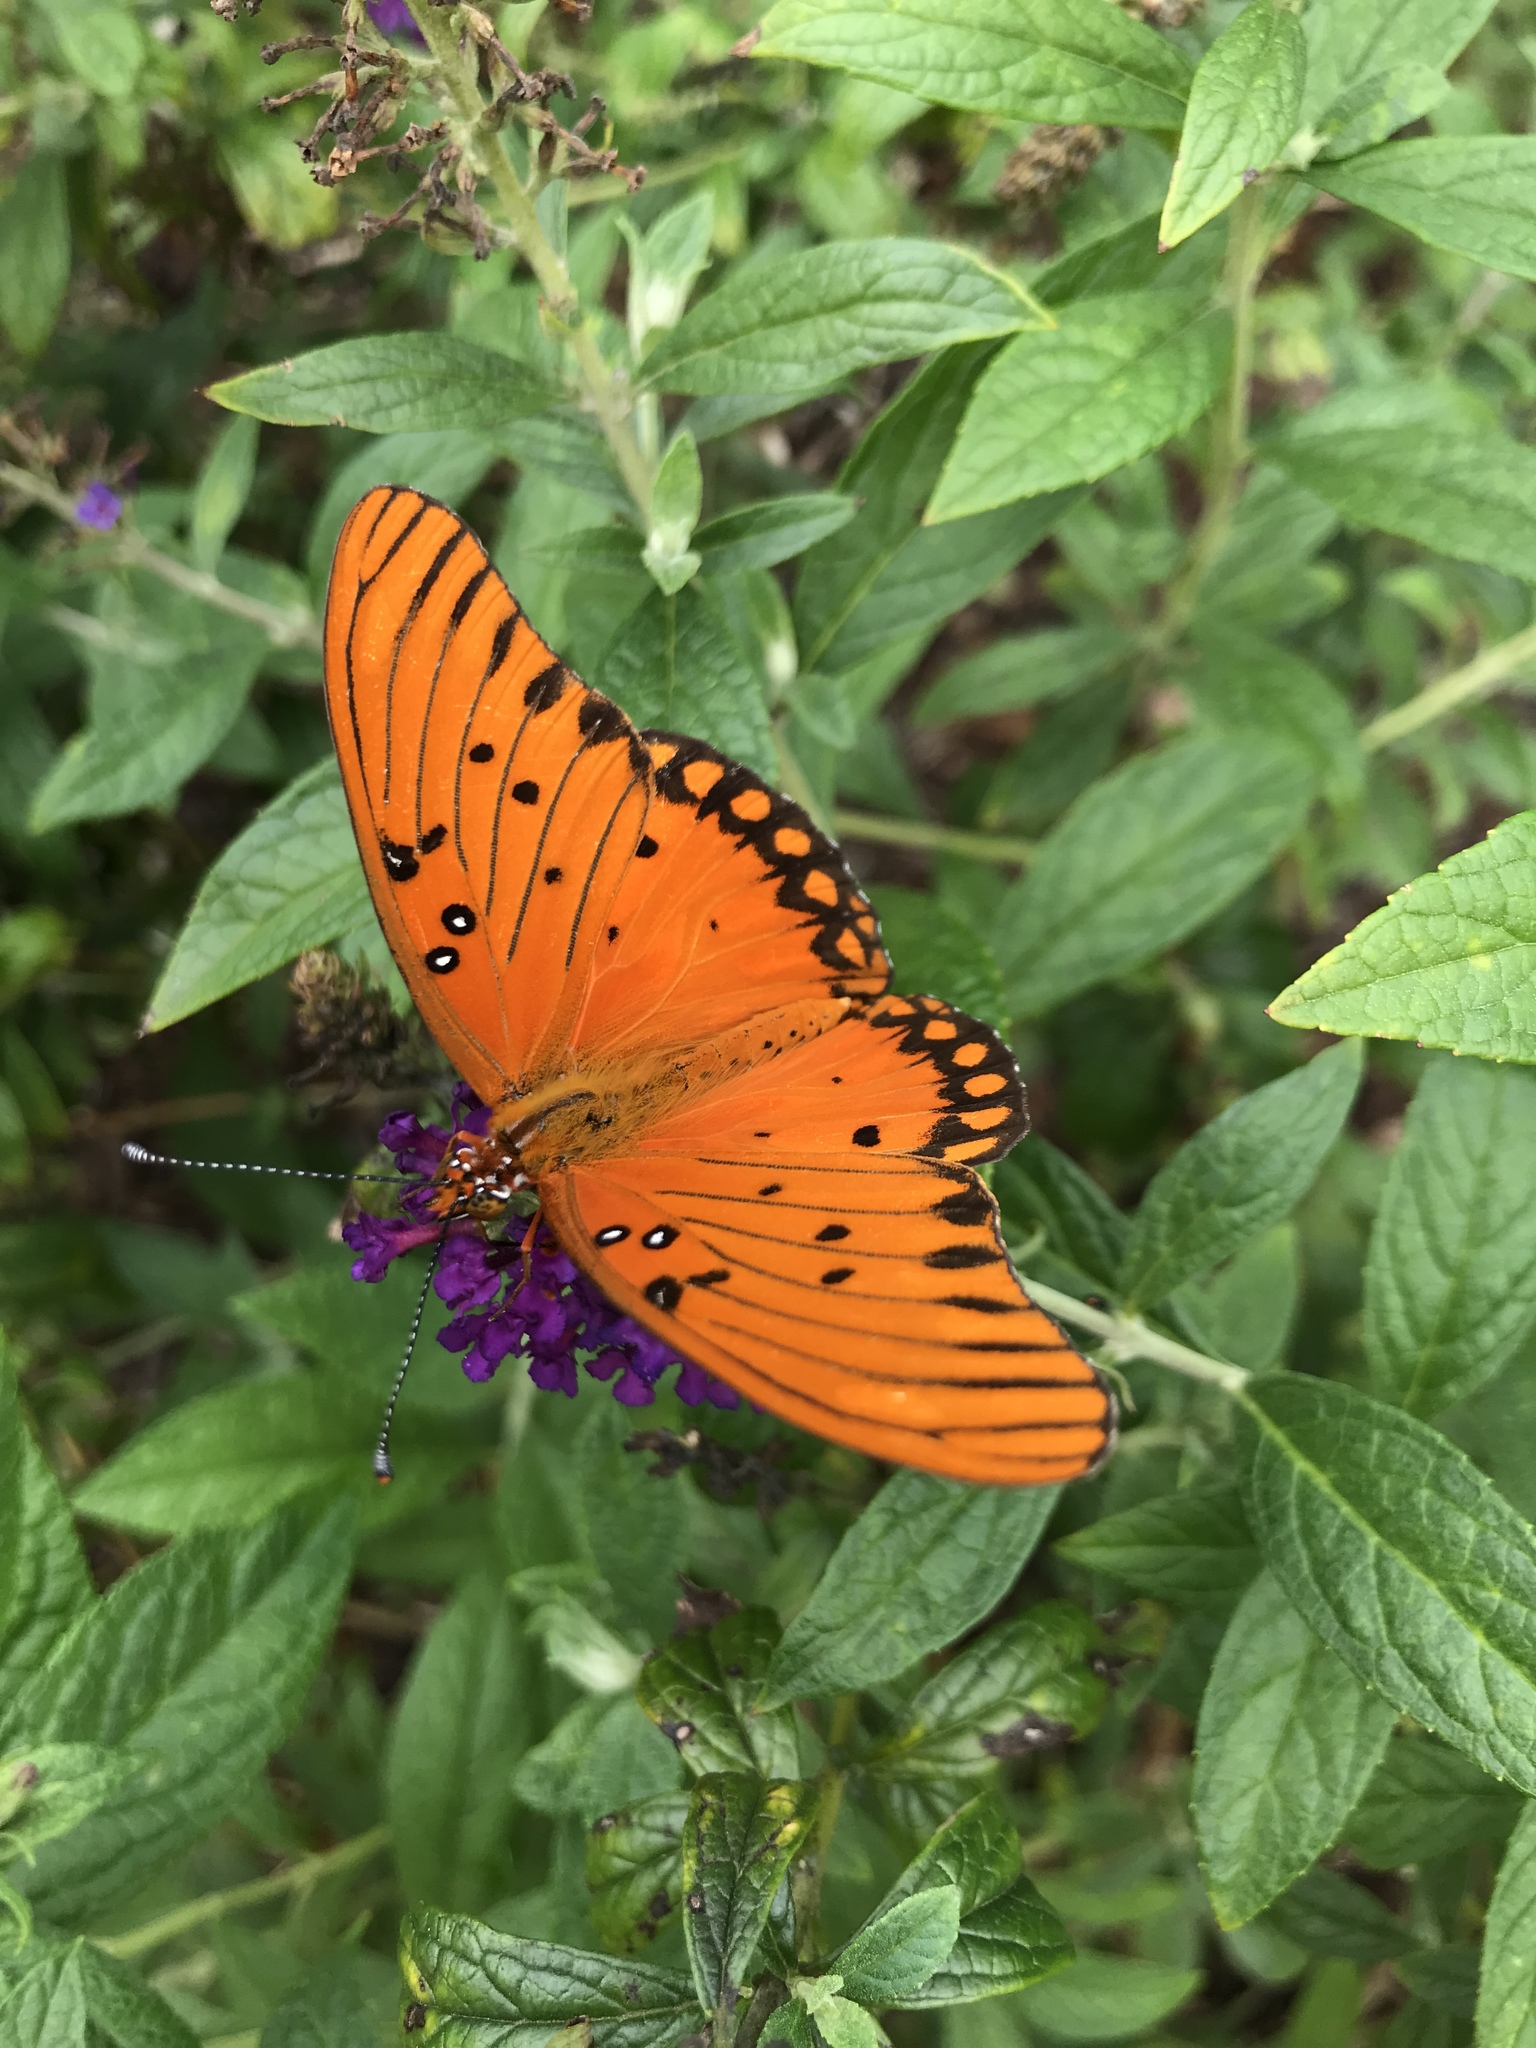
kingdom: Animalia
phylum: Arthropoda
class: Insecta
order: Lepidoptera
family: Nymphalidae
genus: Dione
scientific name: Dione vanillae
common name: Gulf fritillary
